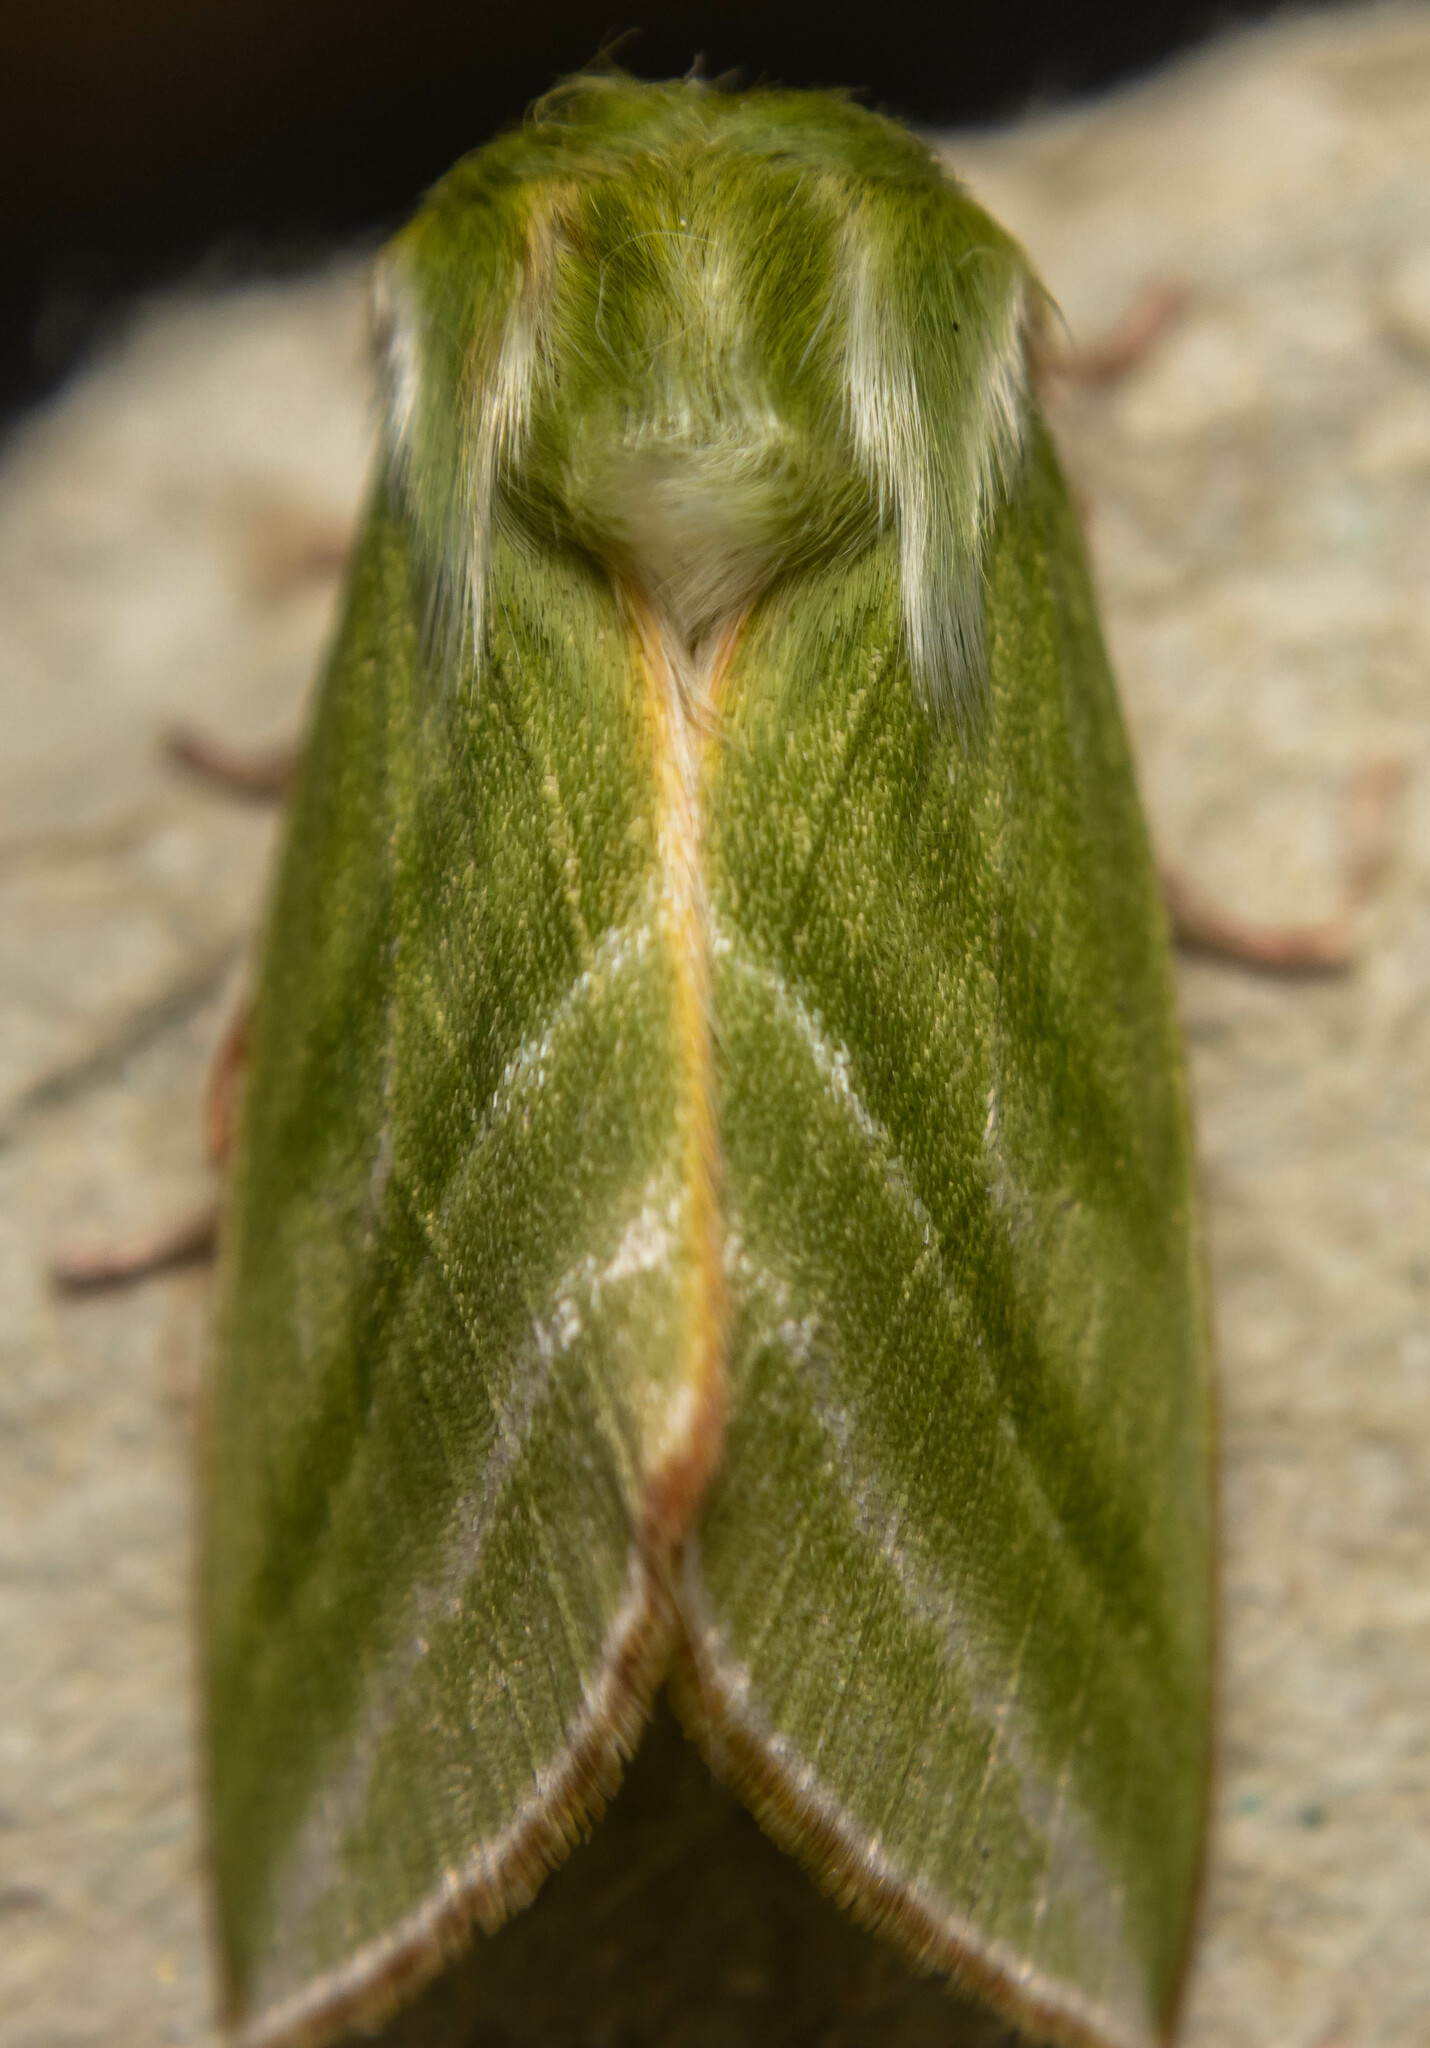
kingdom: Animalia
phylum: Arthropoda
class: Insecta
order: Lepidoptera
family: Nolidae
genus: Pseudoips
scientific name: Pseudoips prasinana
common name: Green silver-lines
